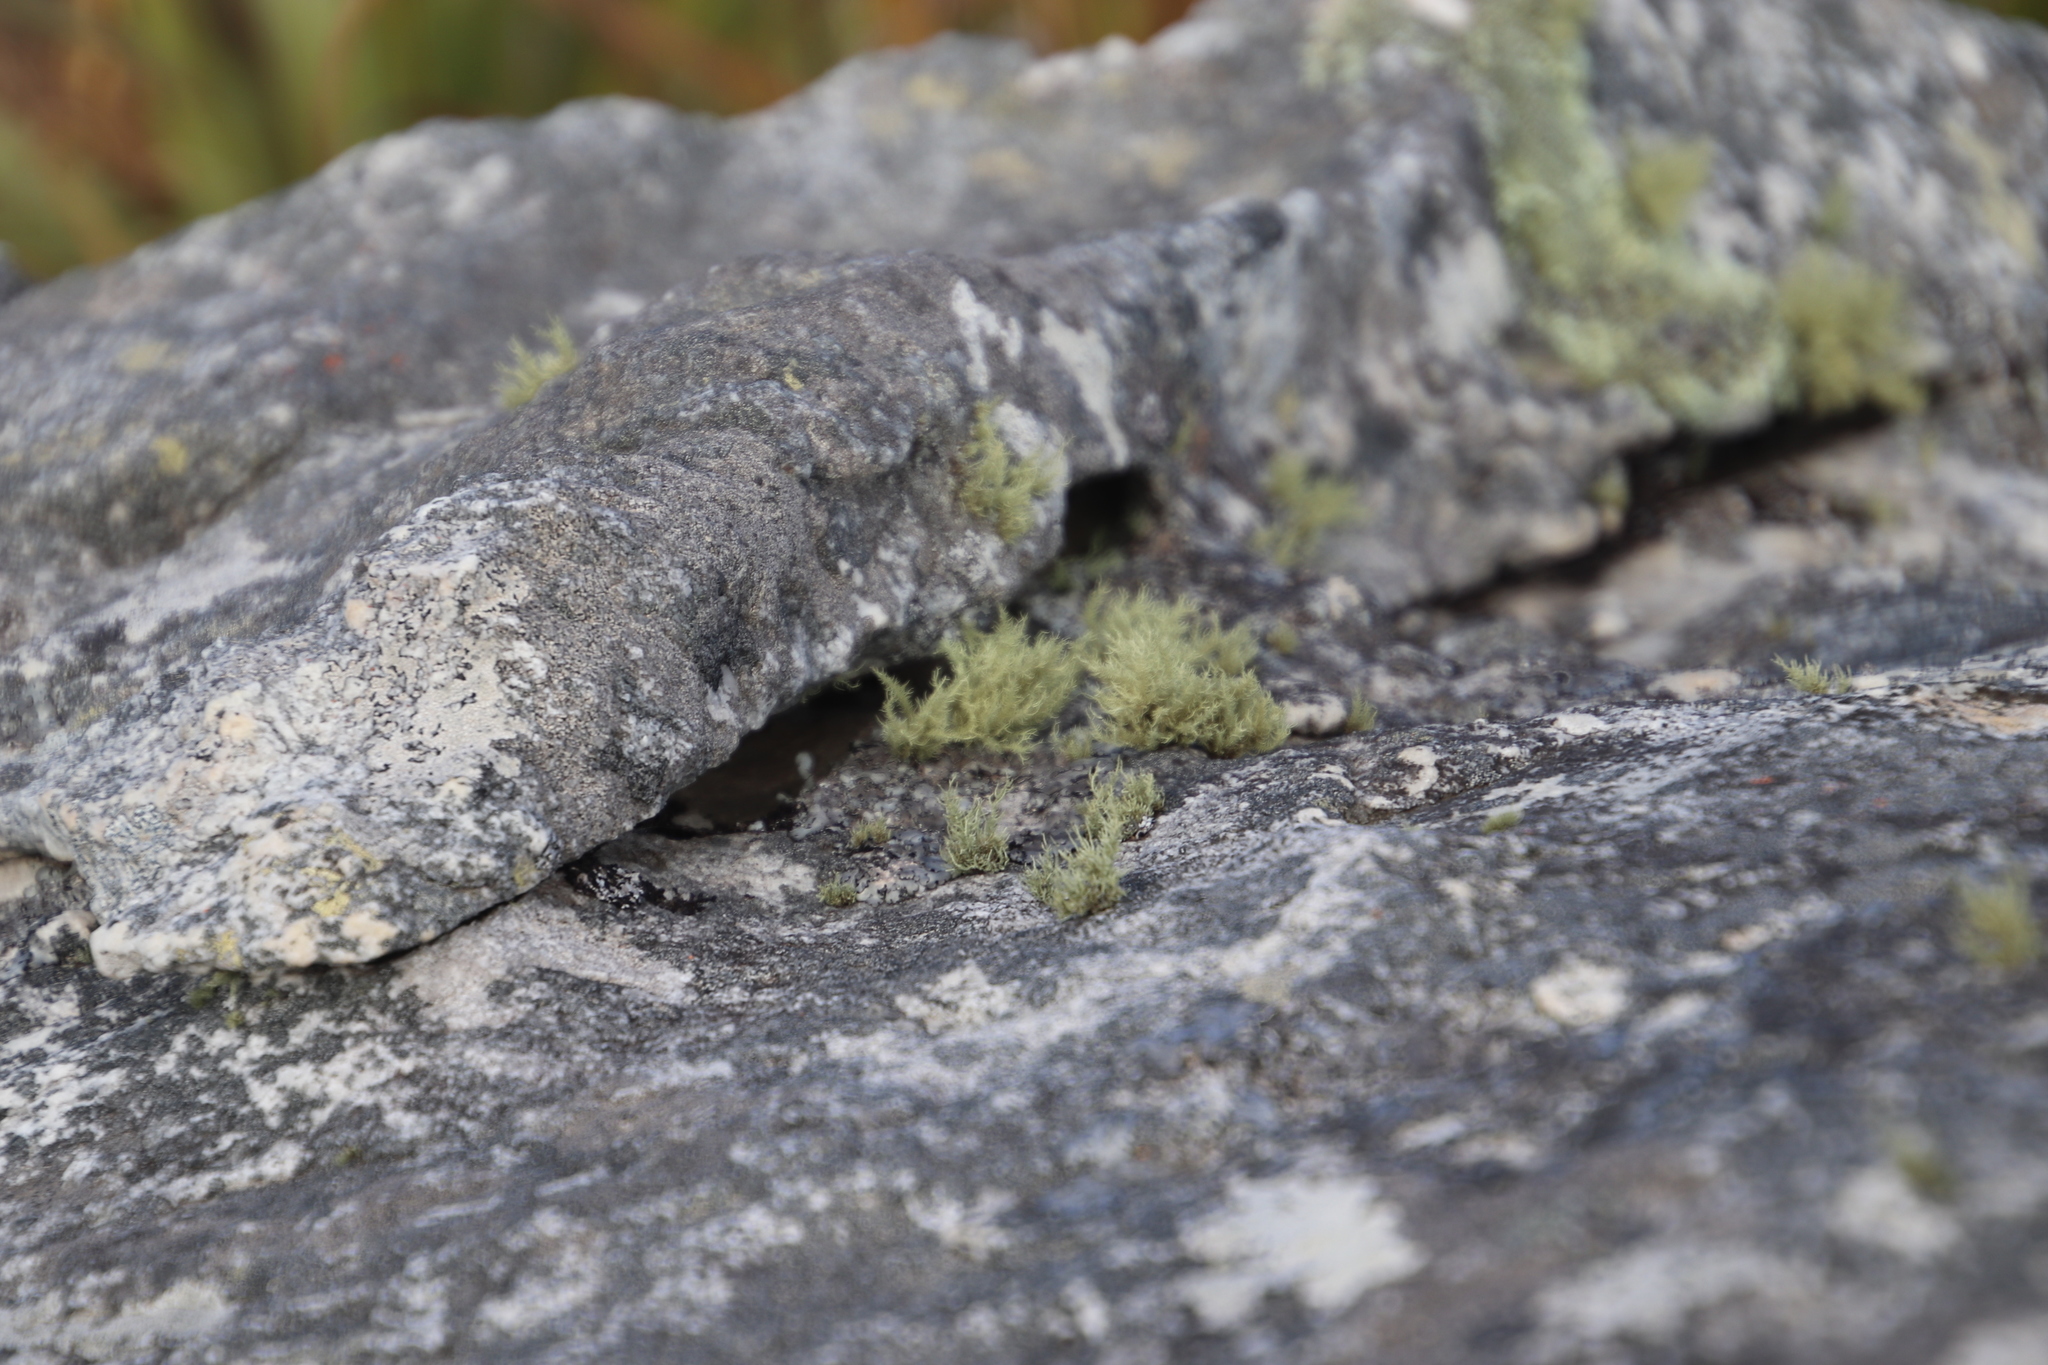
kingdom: Fungi
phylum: Ascomycota
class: Lecanoromycetes
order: Lecanorales
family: Parmeliaceae
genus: Usnea
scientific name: Usnea pulvinata
